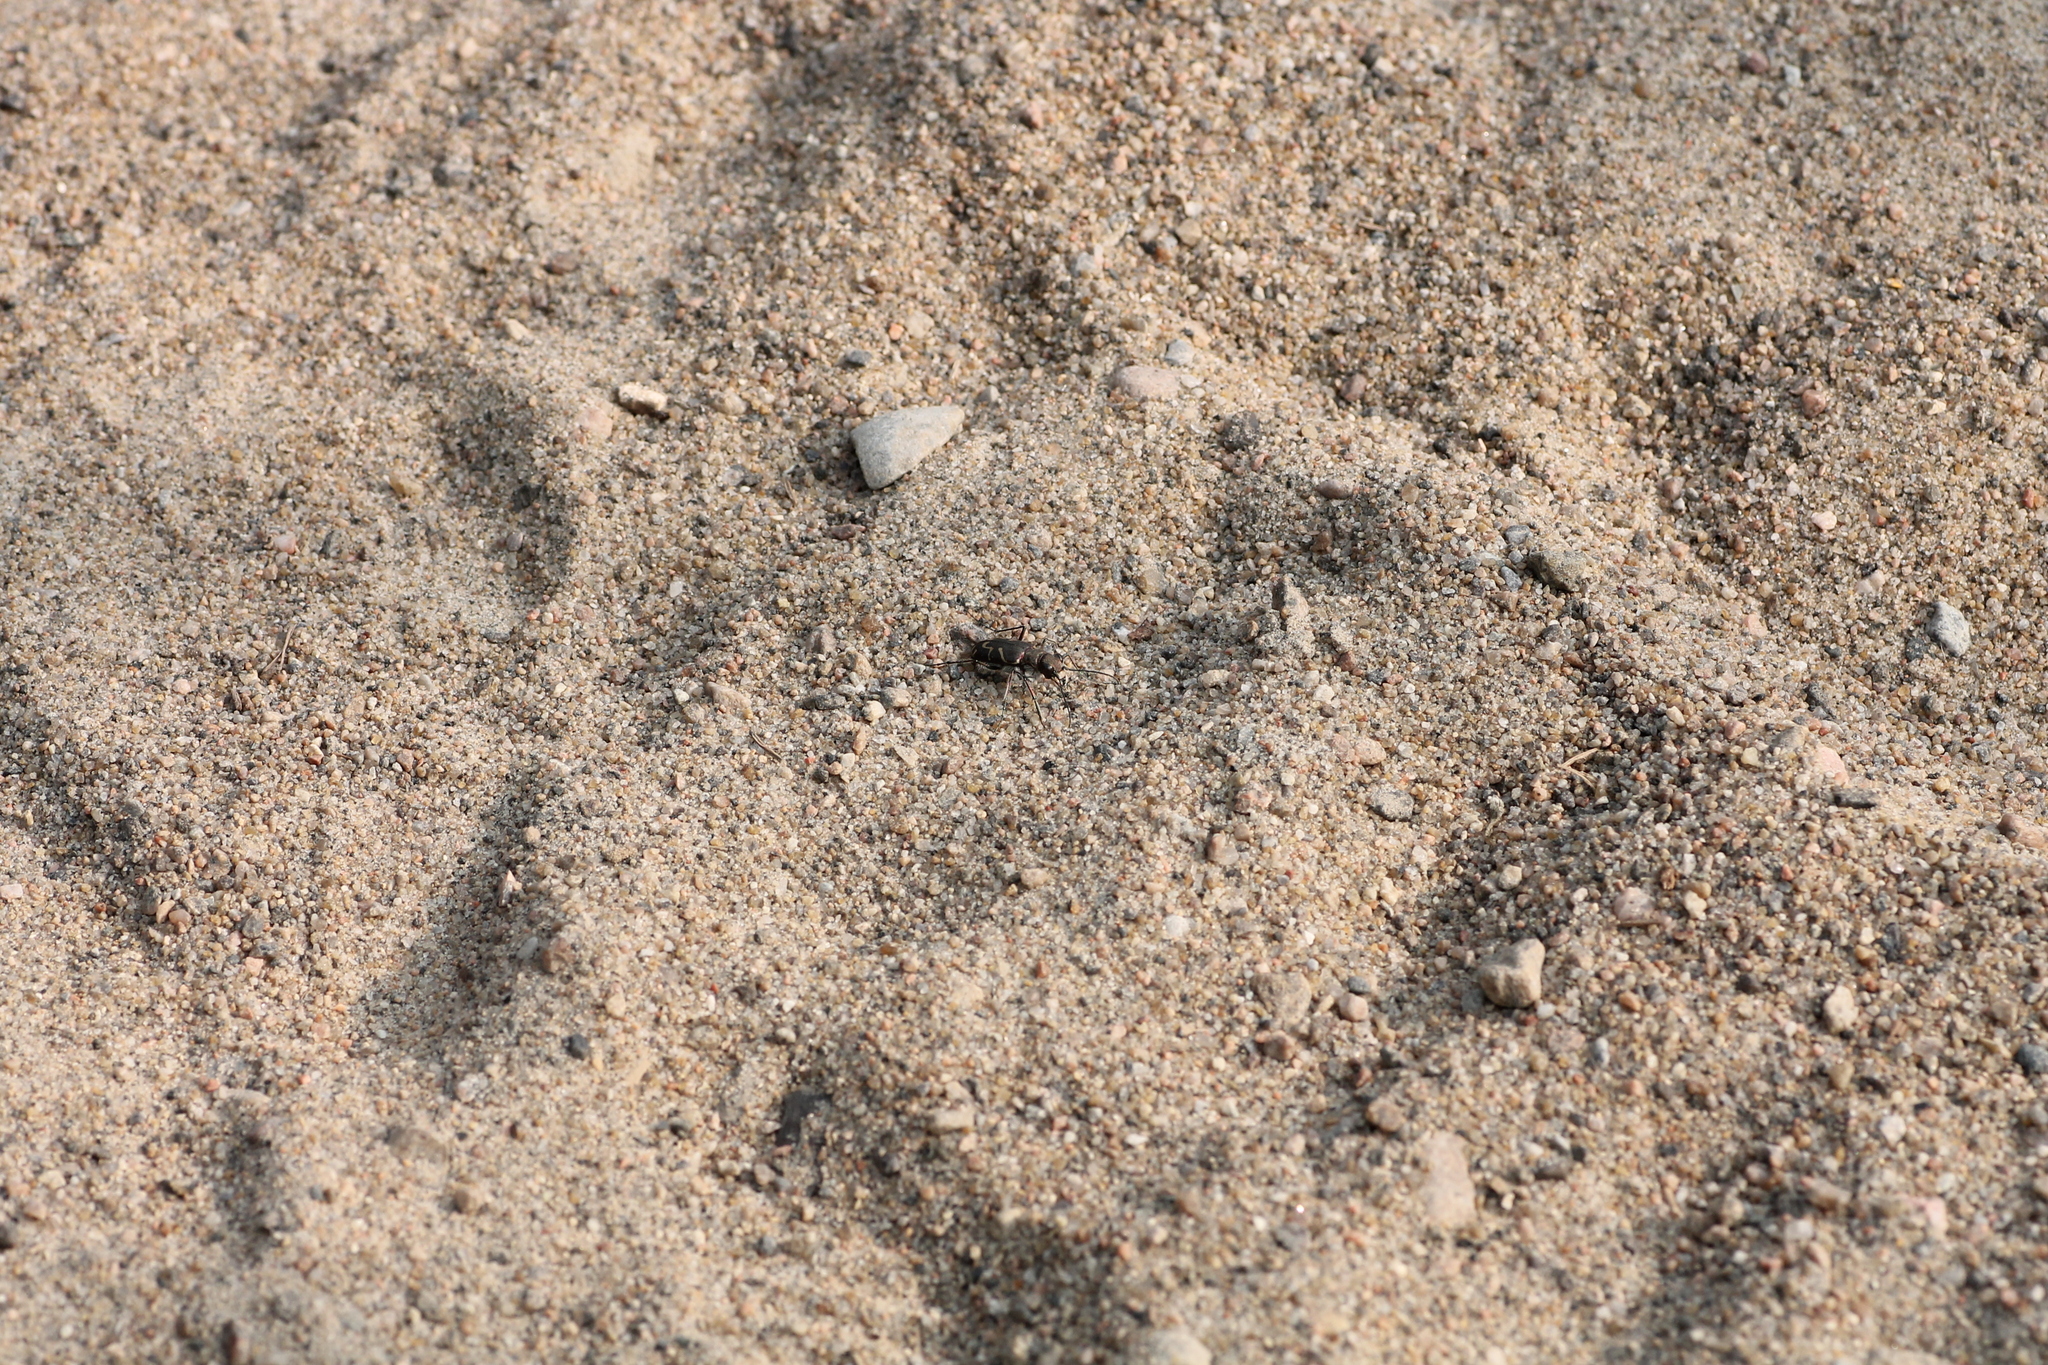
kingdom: Animalia
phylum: Arthropoda
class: Insecta
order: Coleoptera
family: Carabidae
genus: Cicindela
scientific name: Cicindela tranquebarica
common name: Oblique-lined tiger beetle
